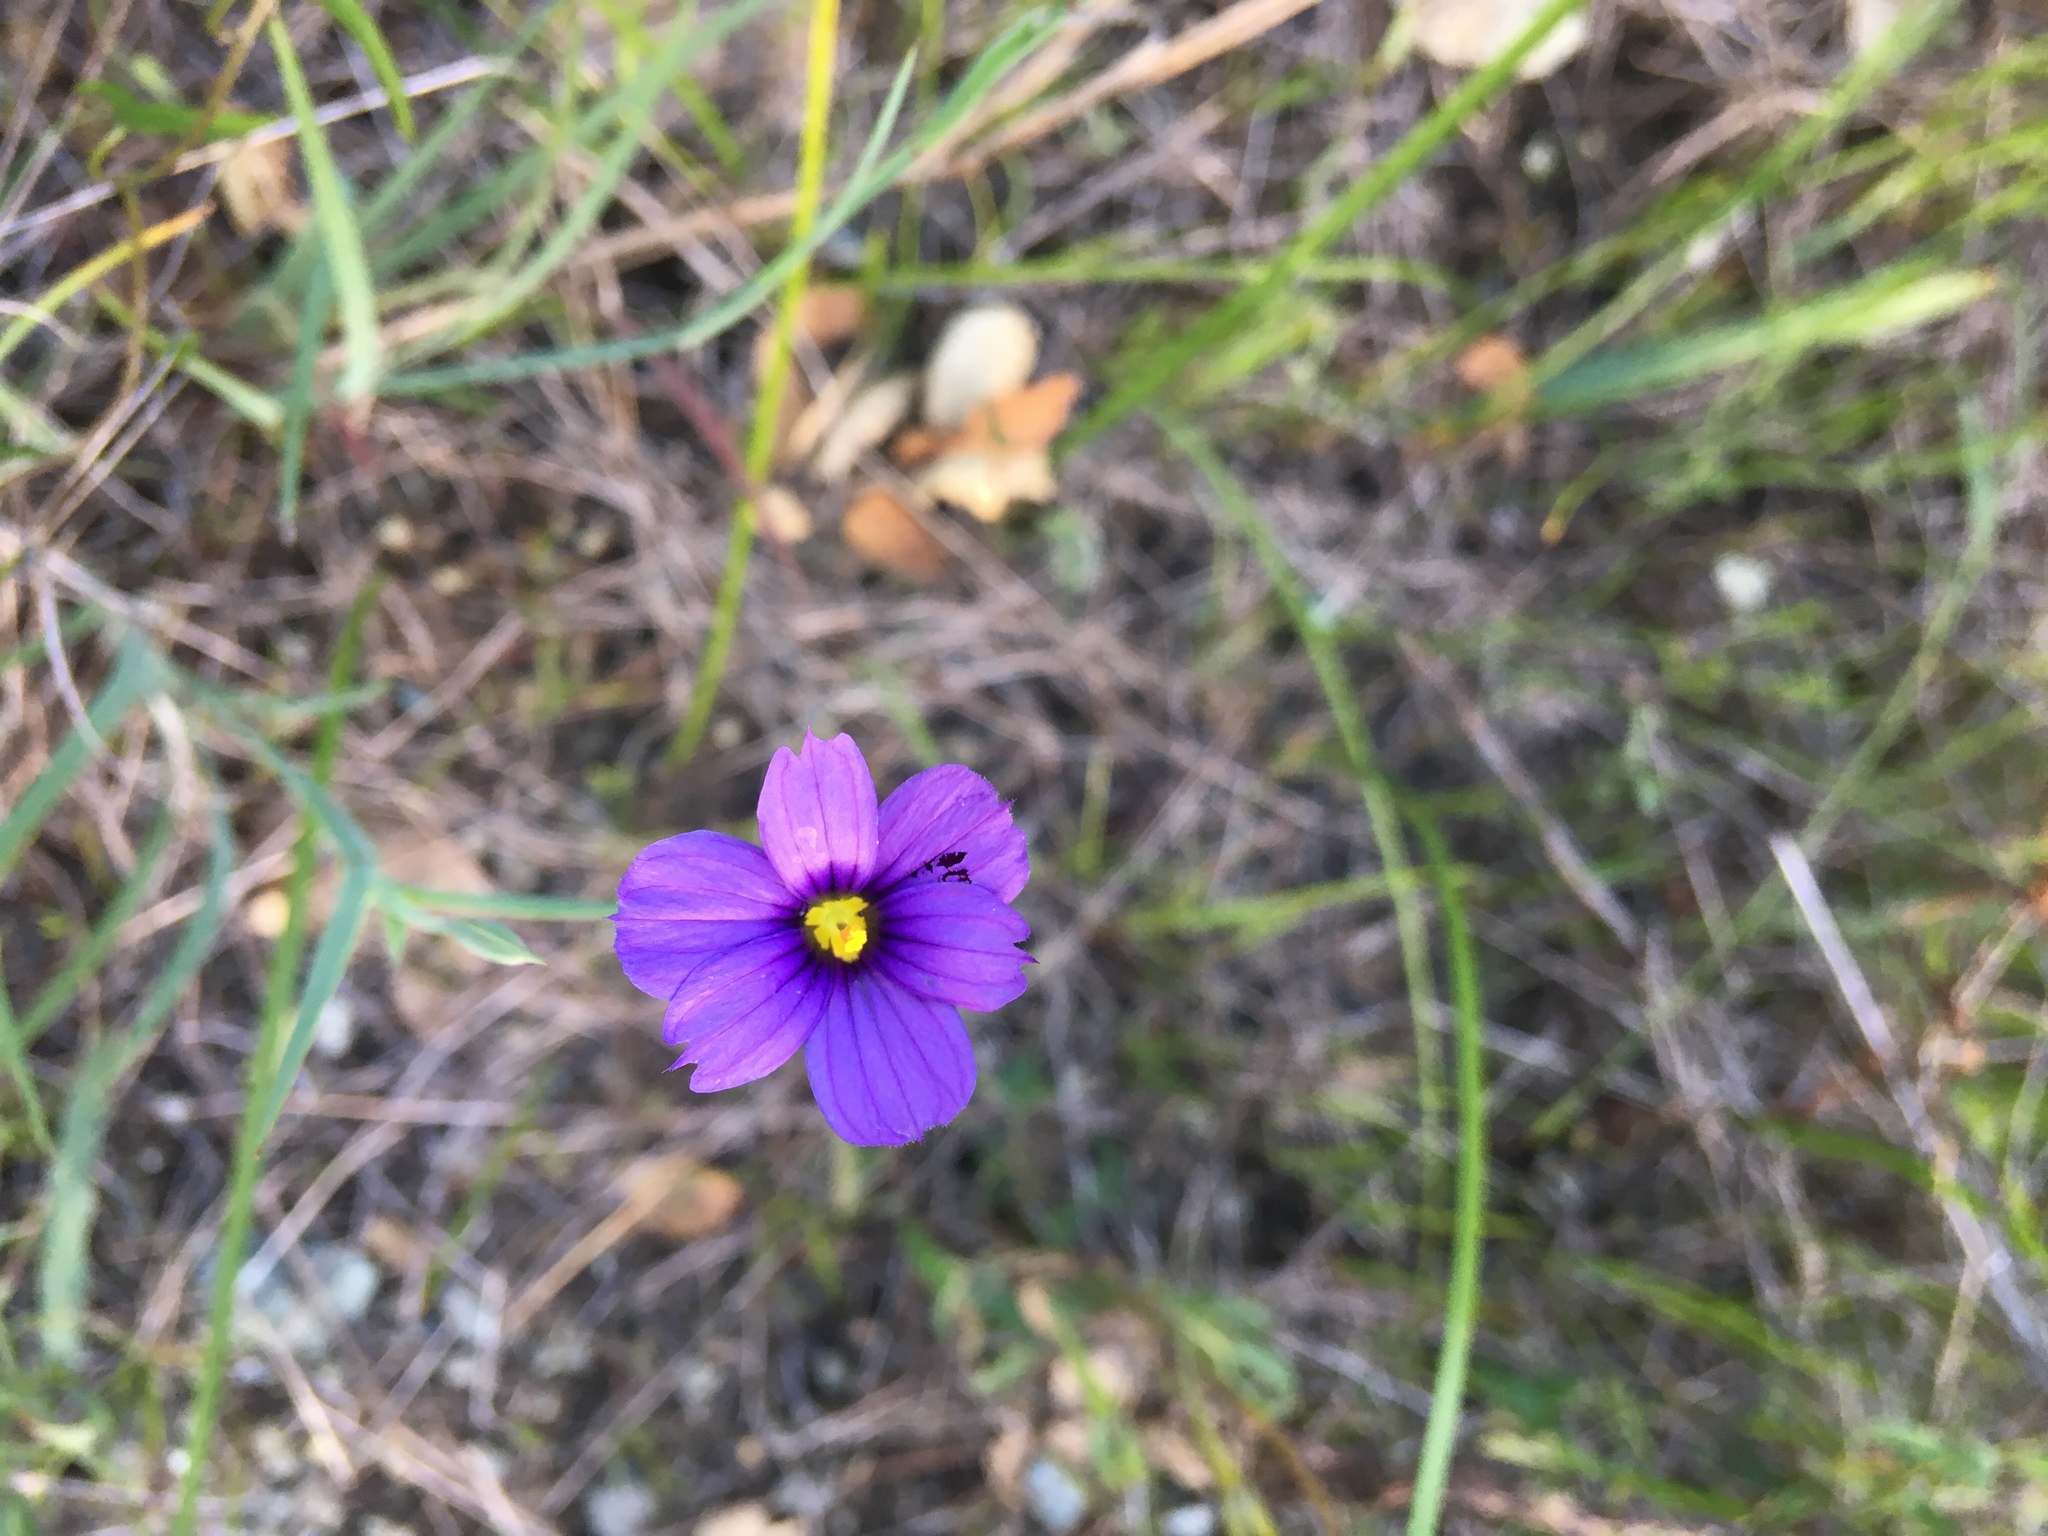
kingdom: Plantae
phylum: Tracheophyta
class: Liliopsida
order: Asparagales
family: Iridaceae
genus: Sisyrinchium
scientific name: Sisyrinchium bellum
